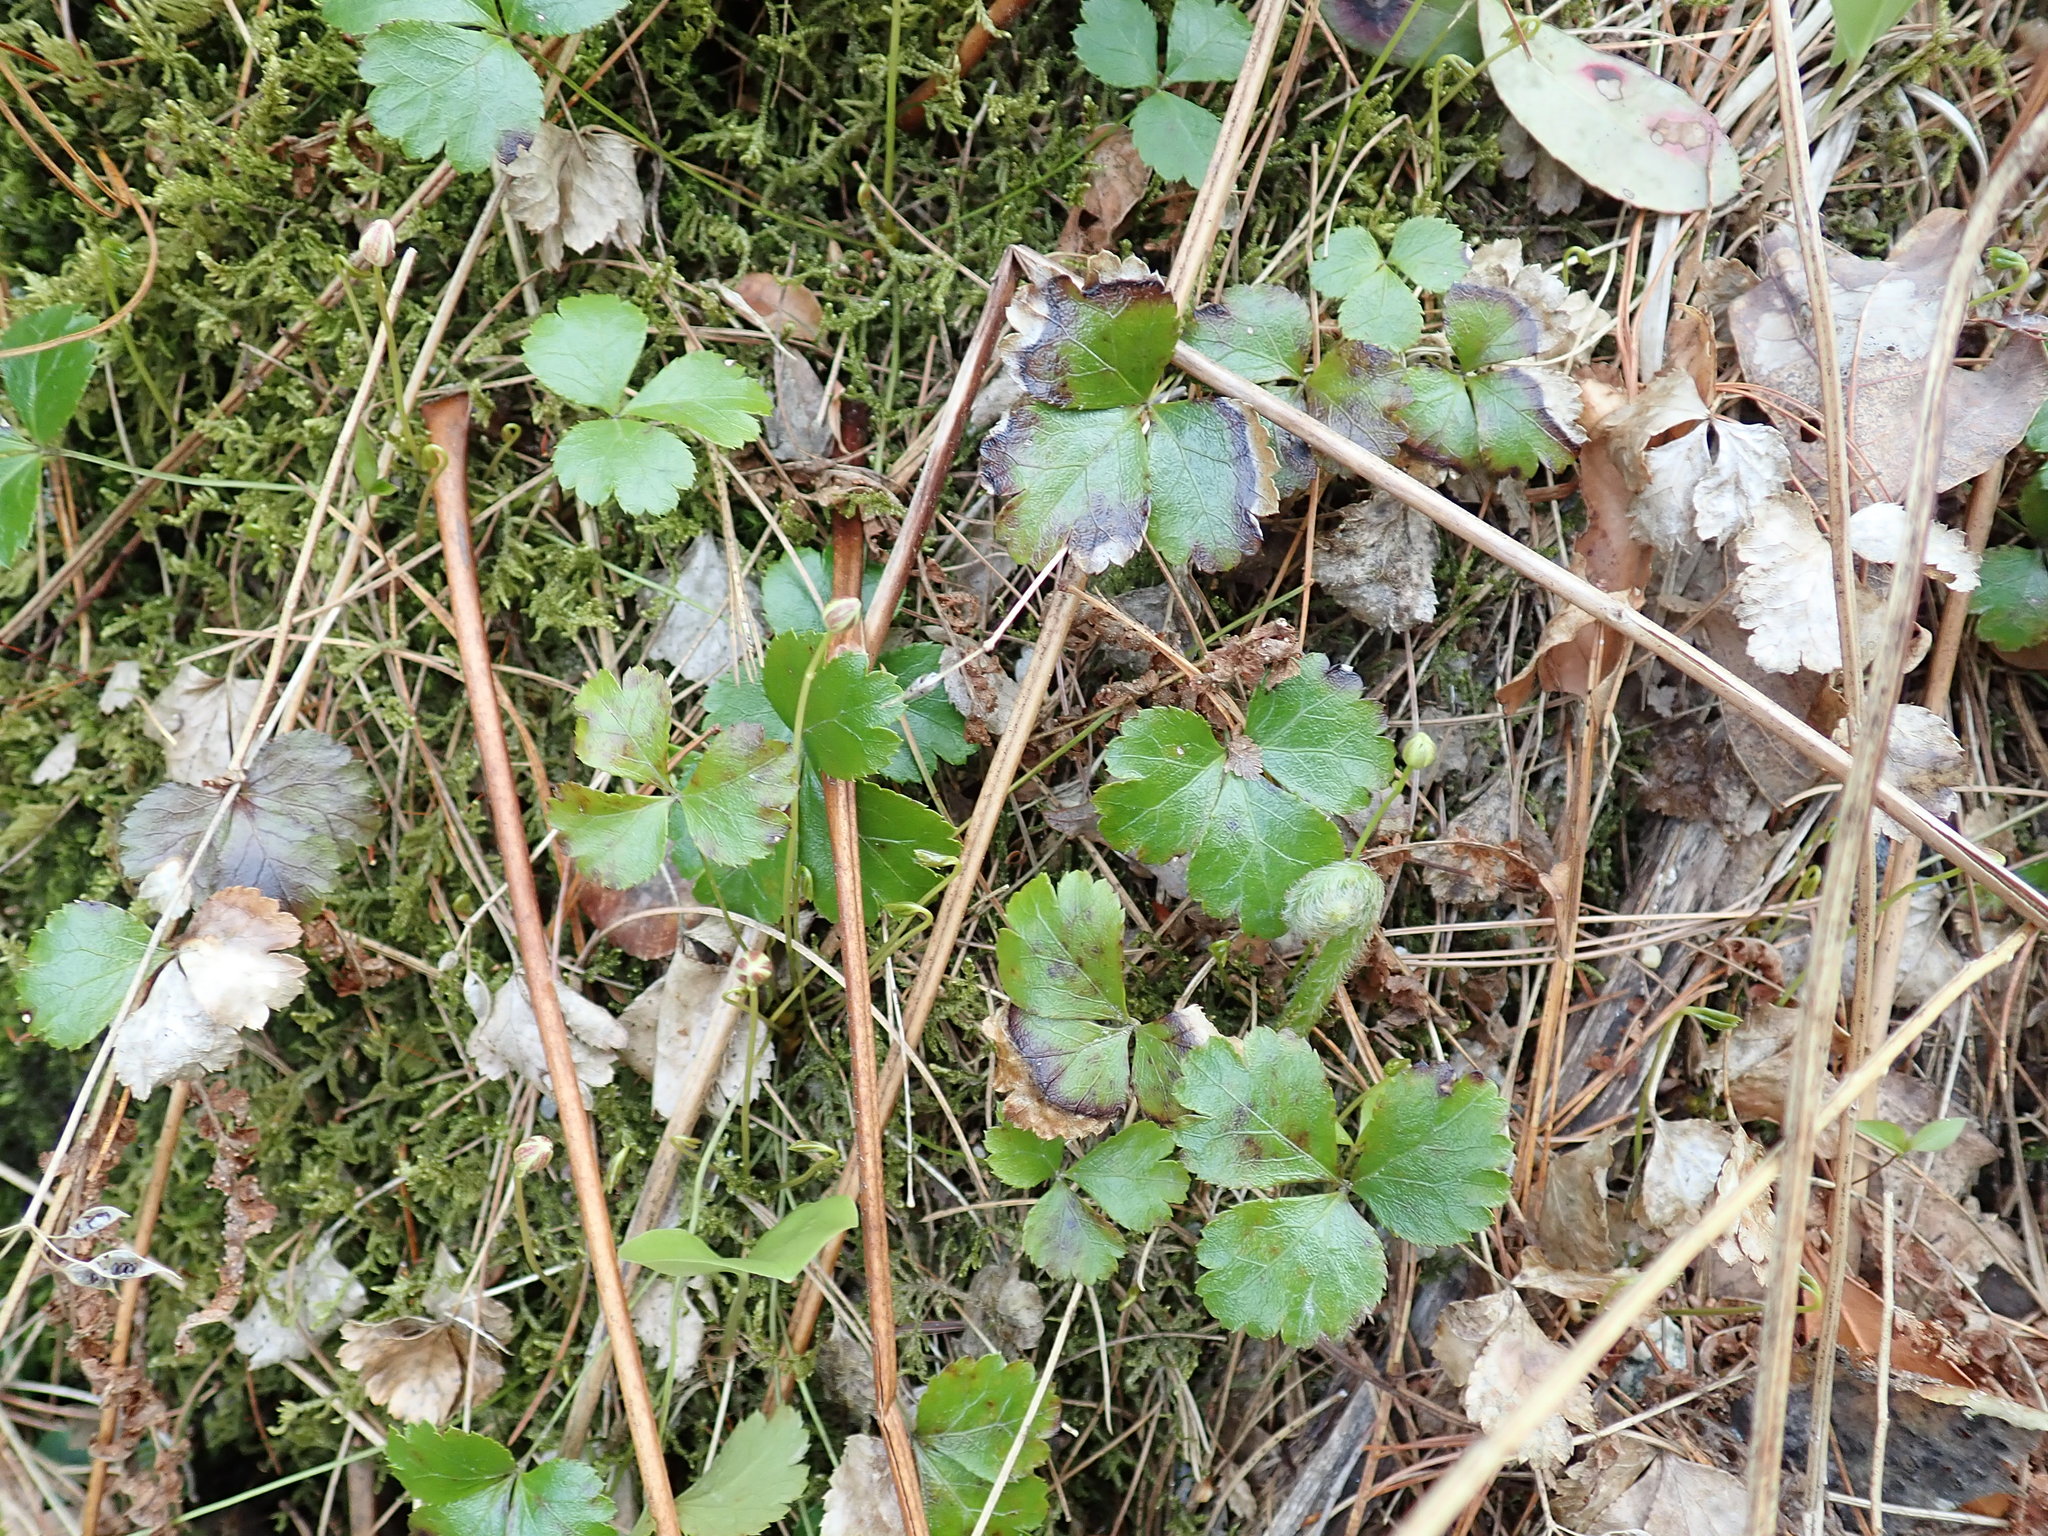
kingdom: Plantae
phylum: Tracheophyta
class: Magnoliopsida
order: Ranunculales
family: Ranunculaceae
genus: Coptis
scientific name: Coptis trifolia
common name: Canker-root
